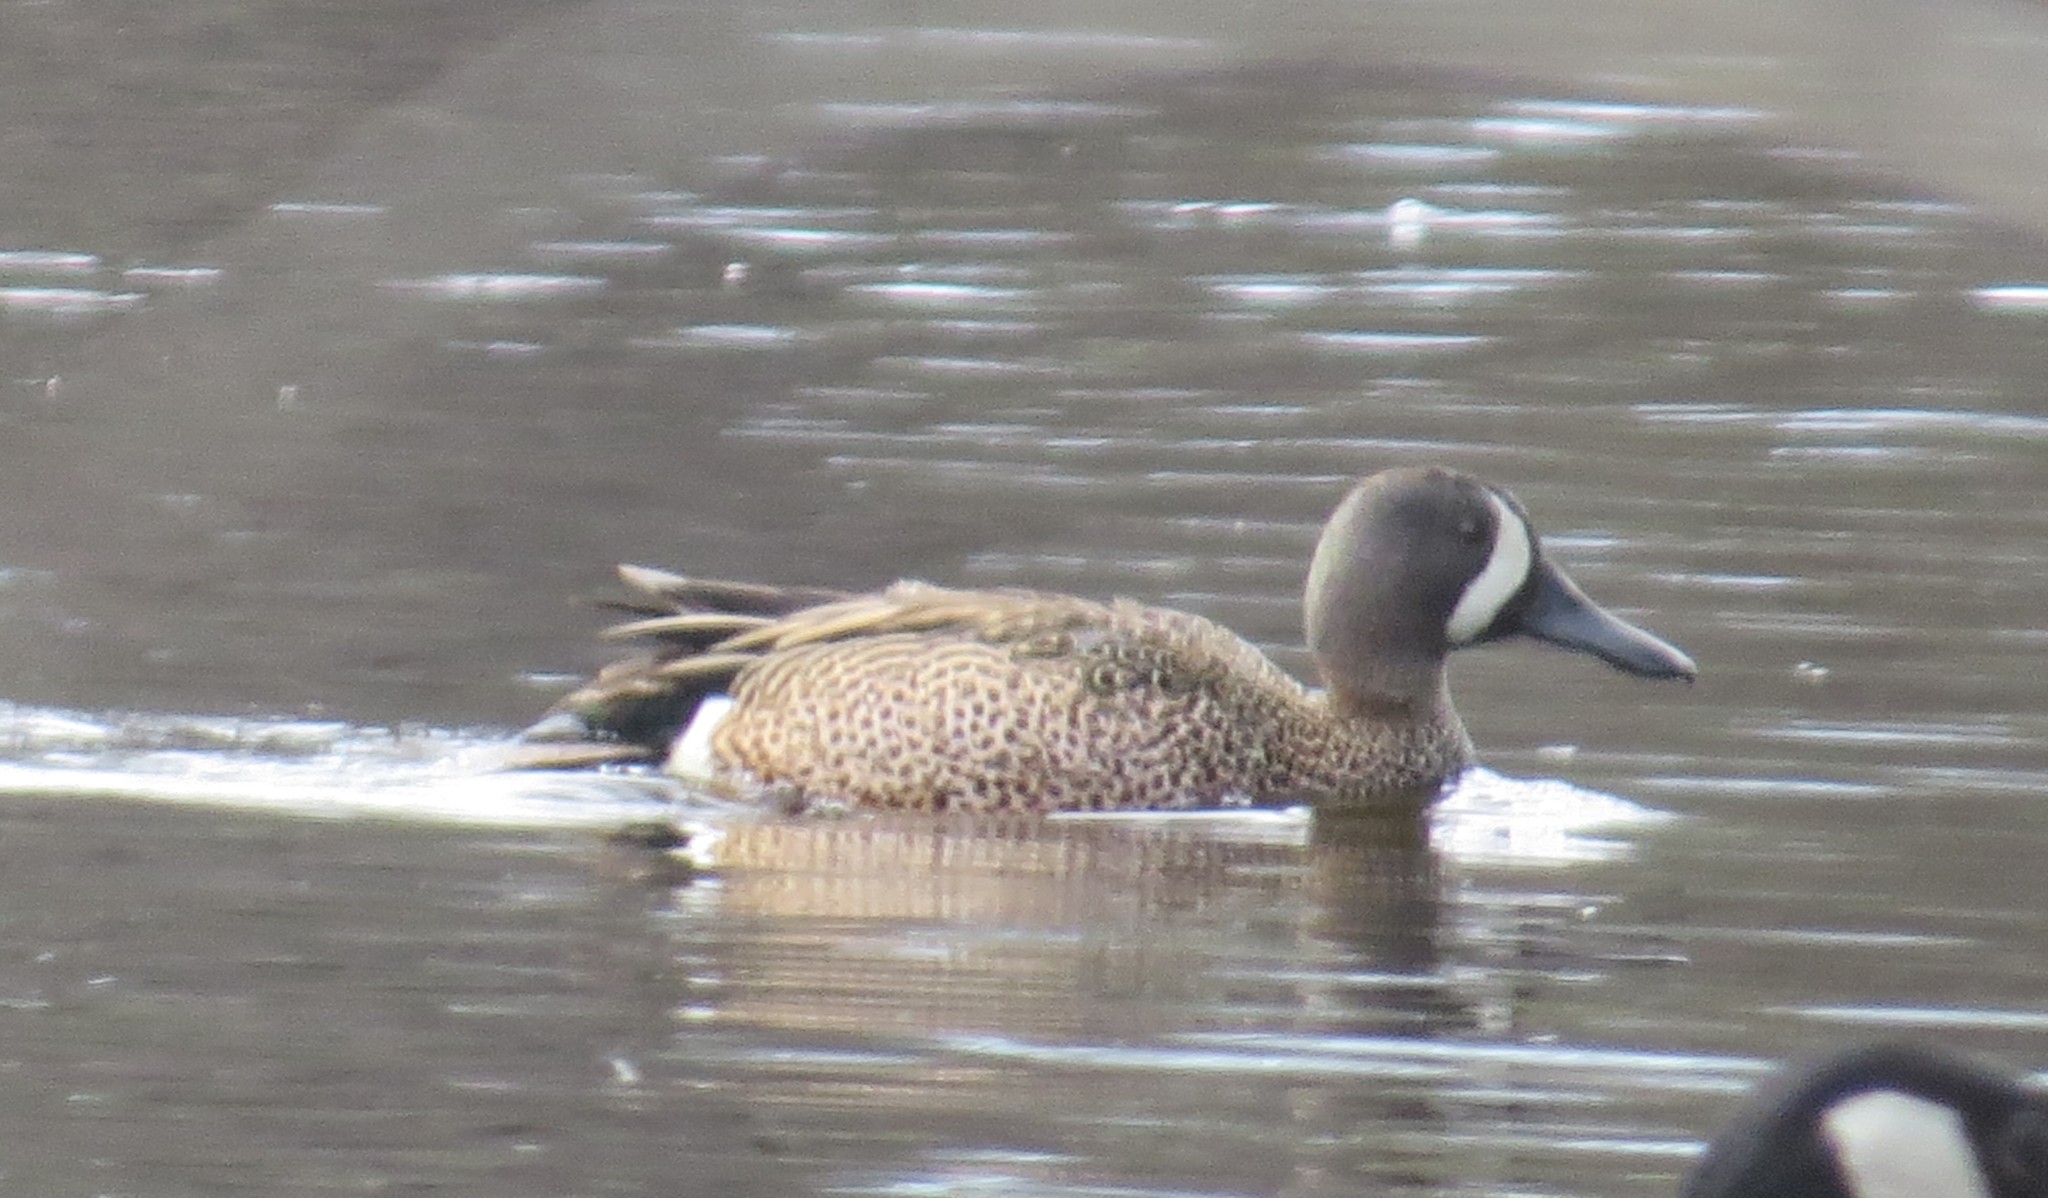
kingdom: Animalia
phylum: Chordata
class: Aves
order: Anseriformes
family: Anatidae
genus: Spatula
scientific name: Spatula discors
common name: Blue-winged teal
